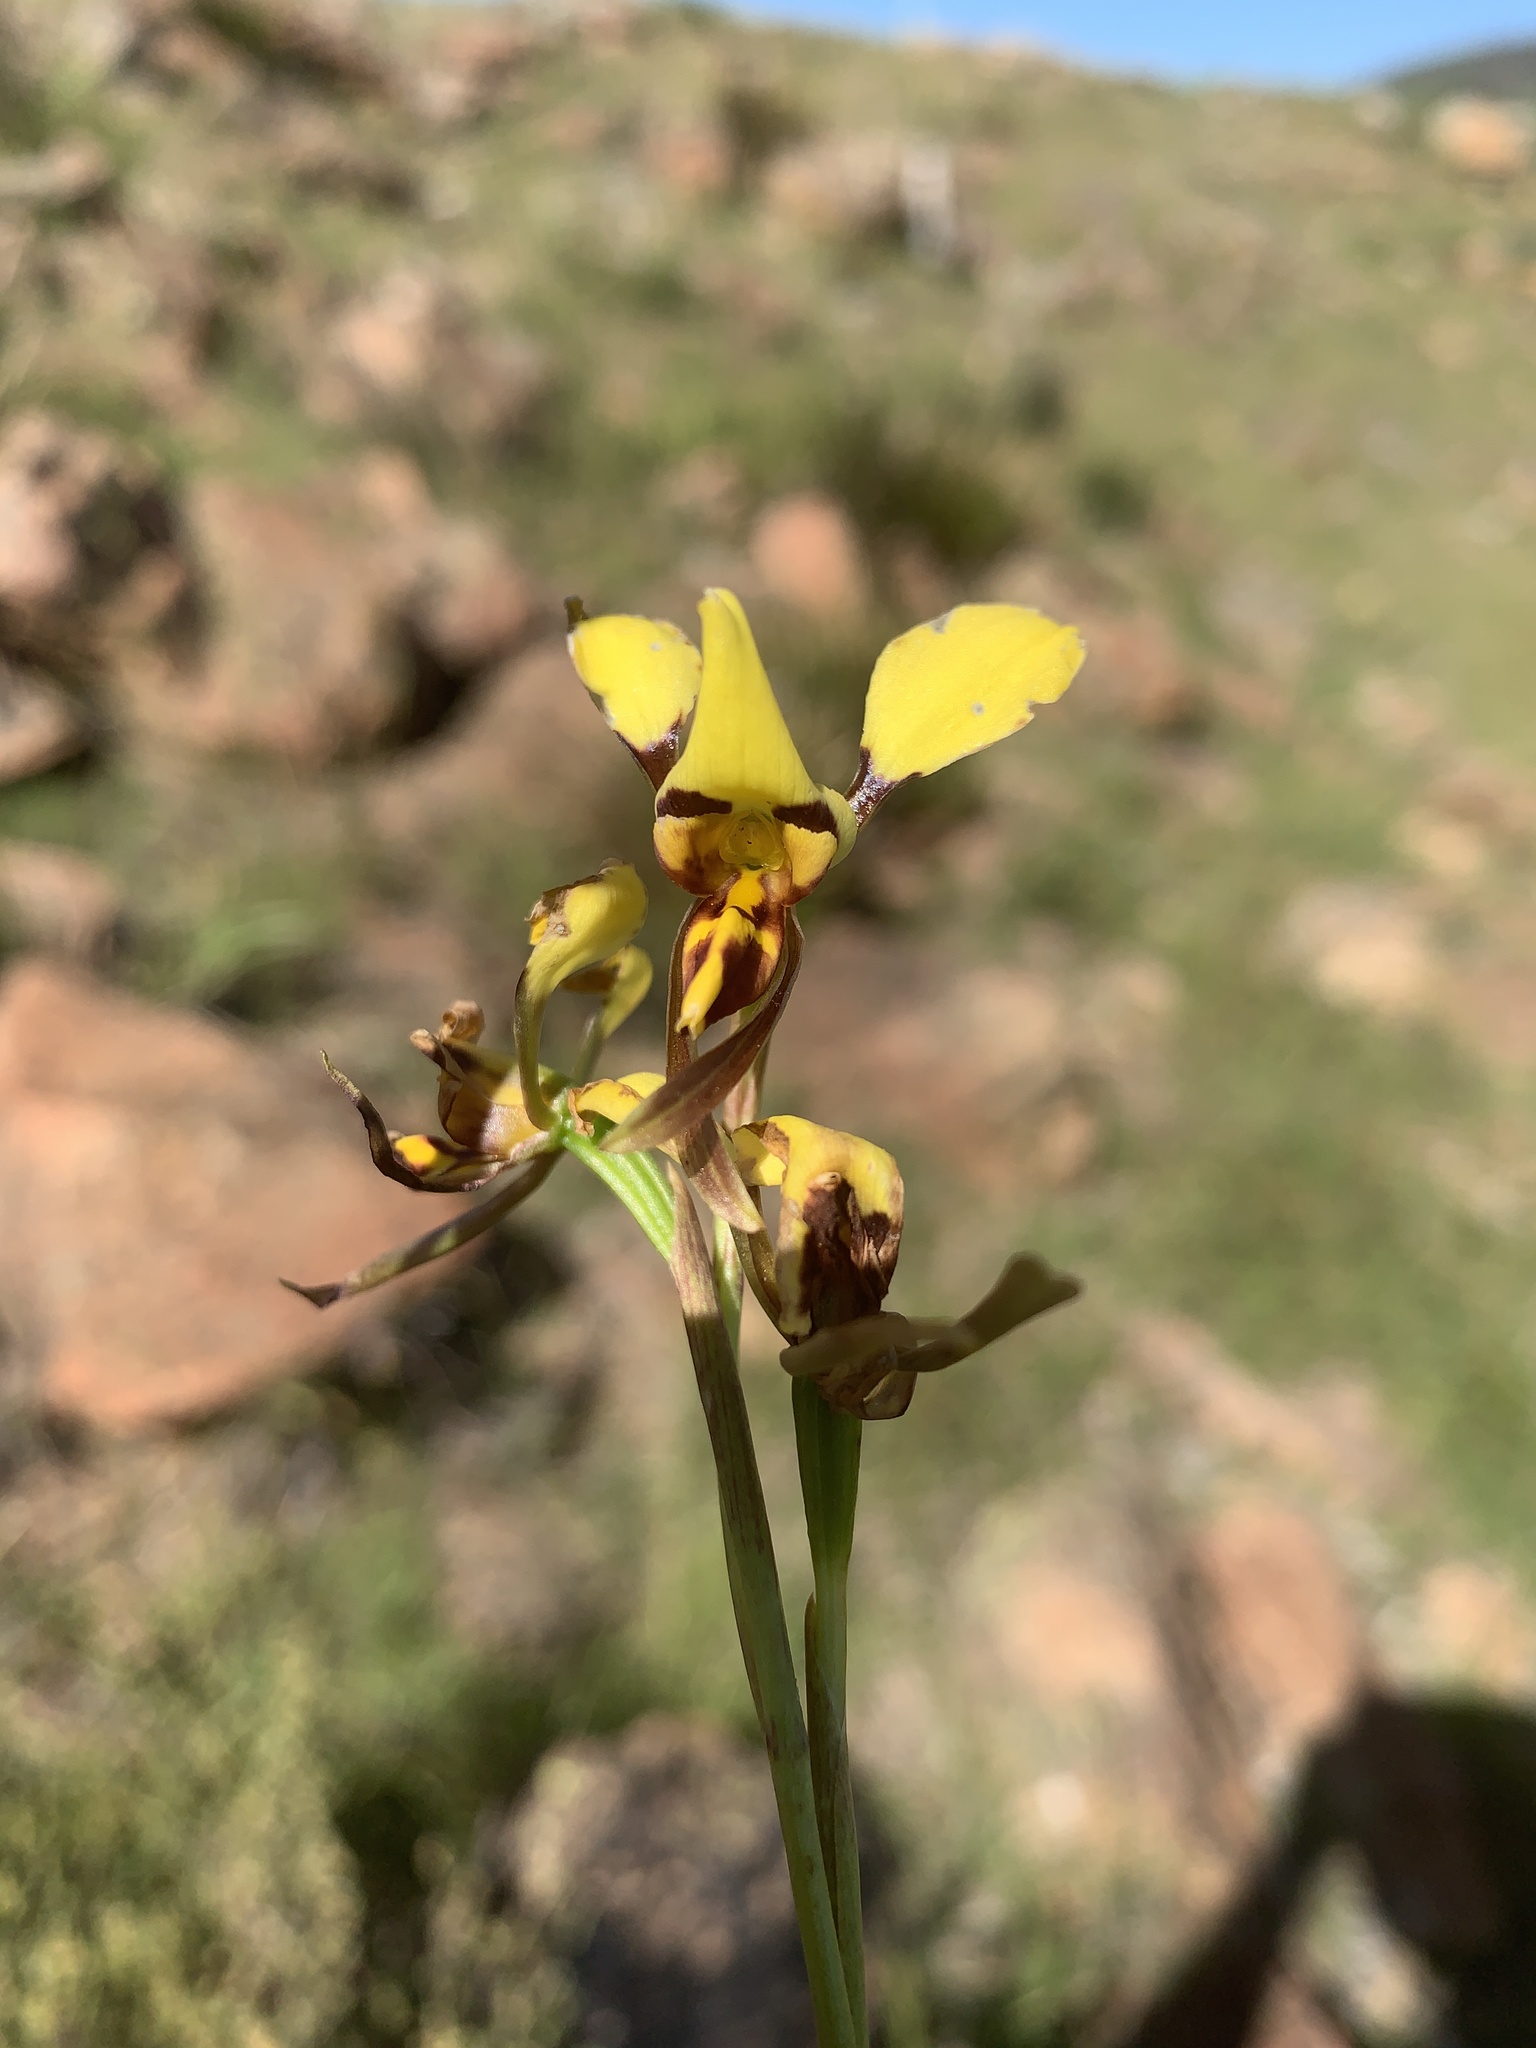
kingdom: Plantae
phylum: Tracheophyta
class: Liliopsida
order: Asparagales
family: Orchidaceae
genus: Diuris
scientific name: Diuris sulphurea
